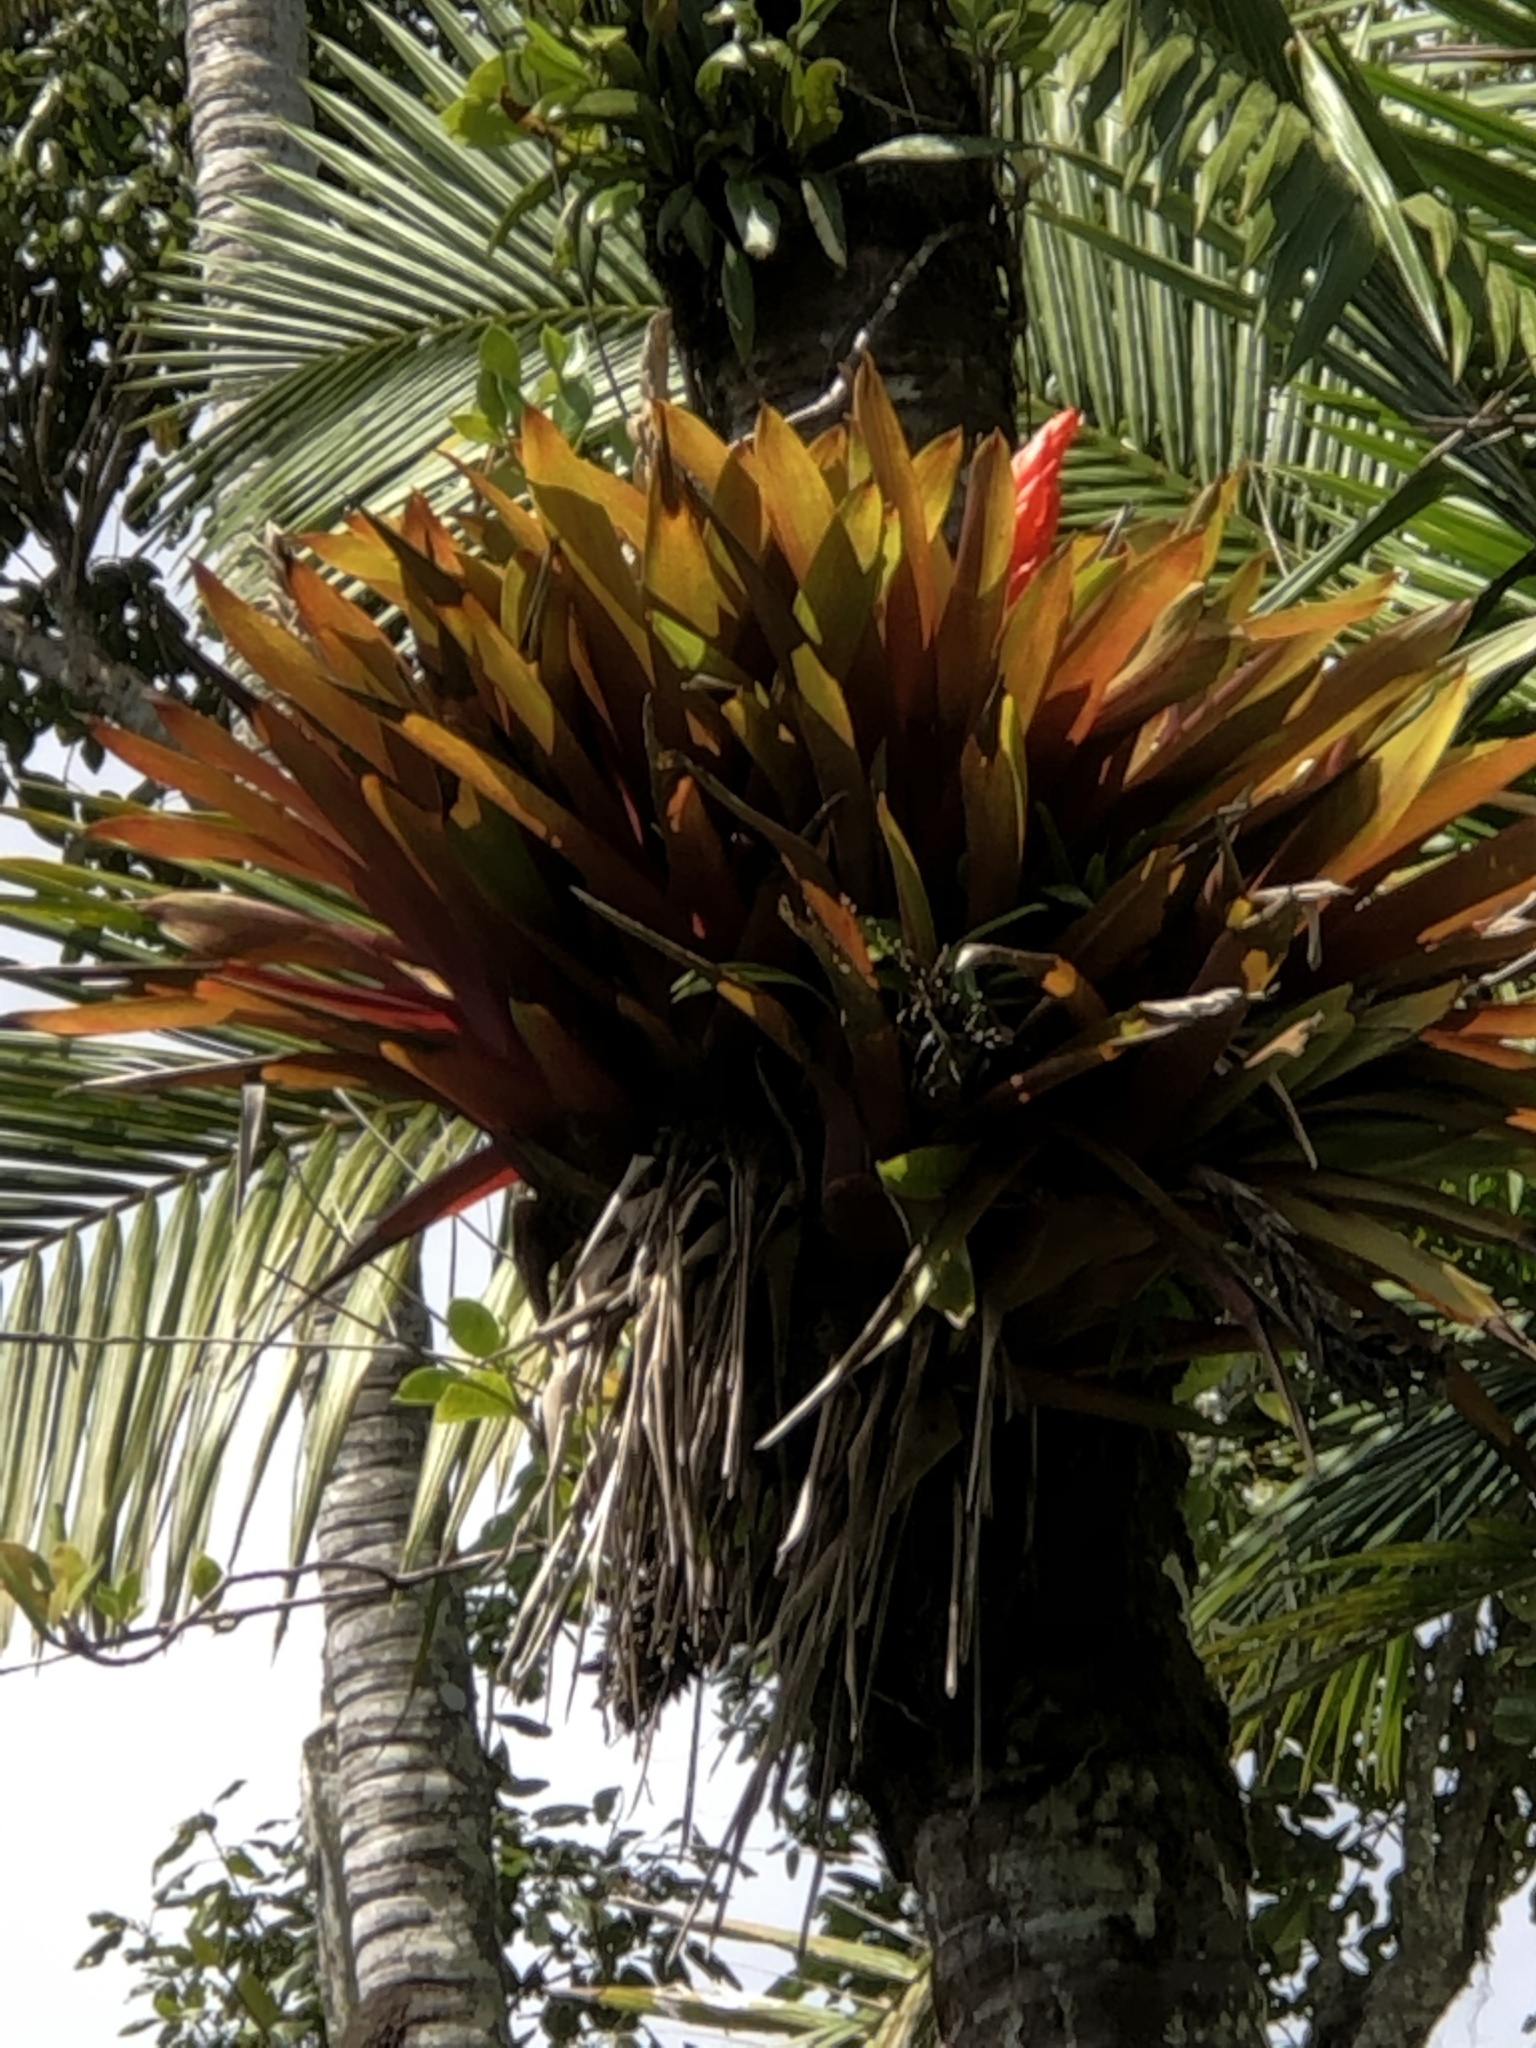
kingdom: Plantae
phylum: Tracheophyta
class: Liliopsida
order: Poales
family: Bromeliaceae
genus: Guzmania
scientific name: Guzmania berteroniana
